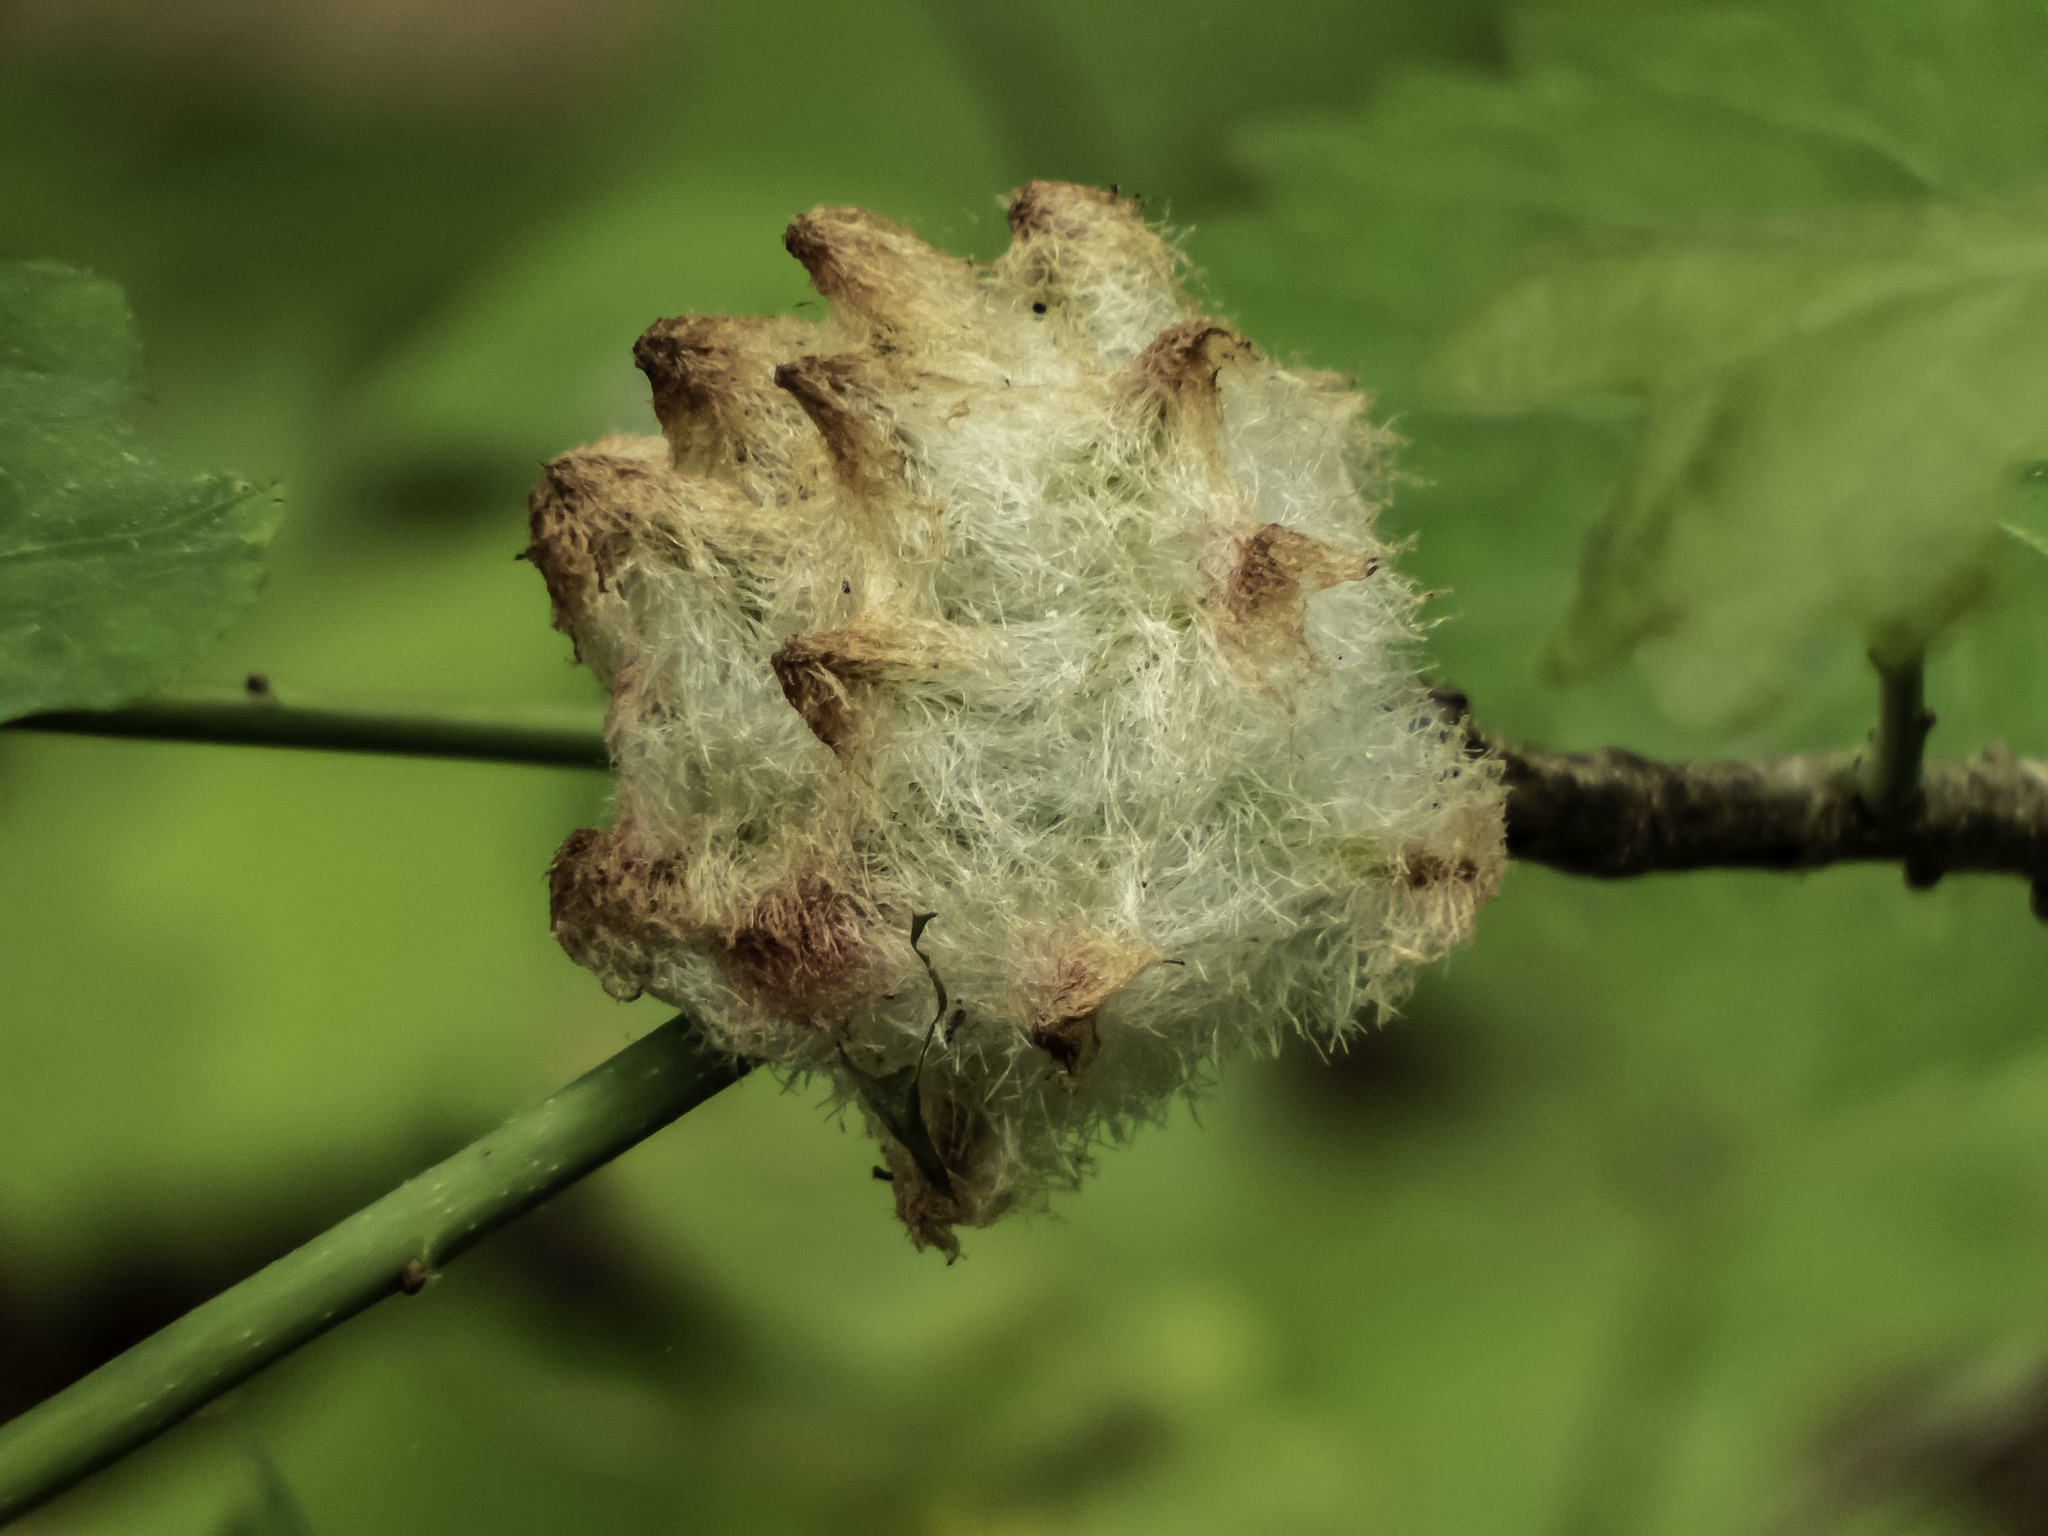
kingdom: Animalia
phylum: Arthropoda
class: Insecta
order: Hymenoptera
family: Cynipidae
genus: Callirhytis
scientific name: Callirhytis
